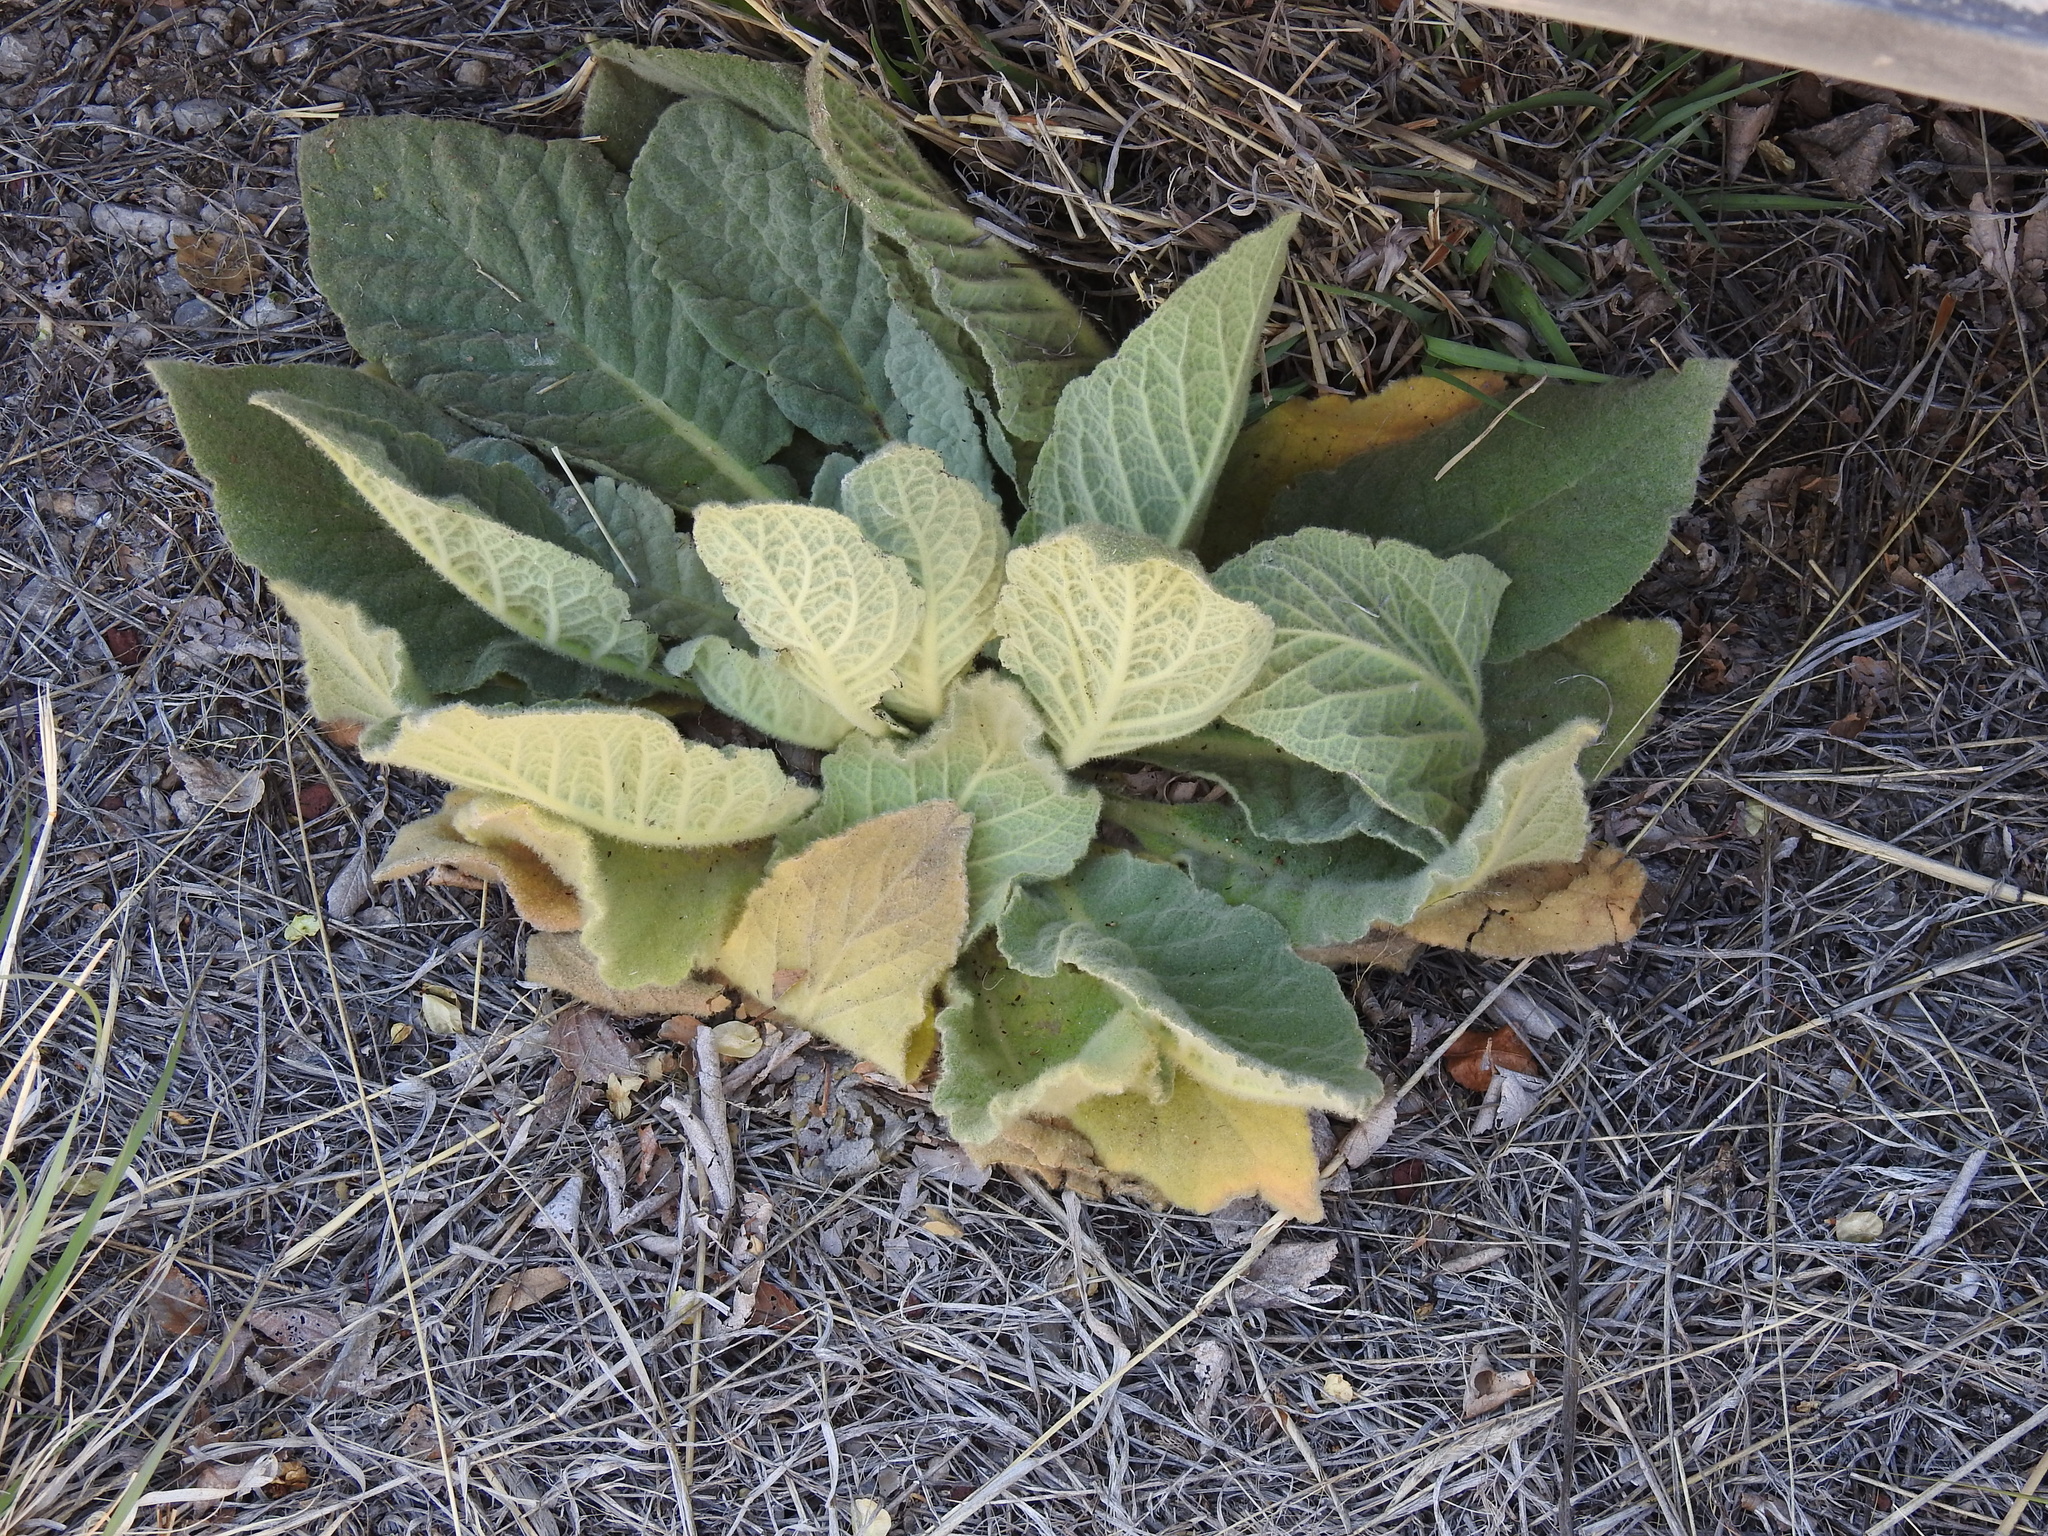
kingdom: Plantae
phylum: Tracheophyta
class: Magnoliopsida
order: Lamiales
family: Scrophulariaceae
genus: Verbascum
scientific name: Verbascum thapsus
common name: Common mullein
